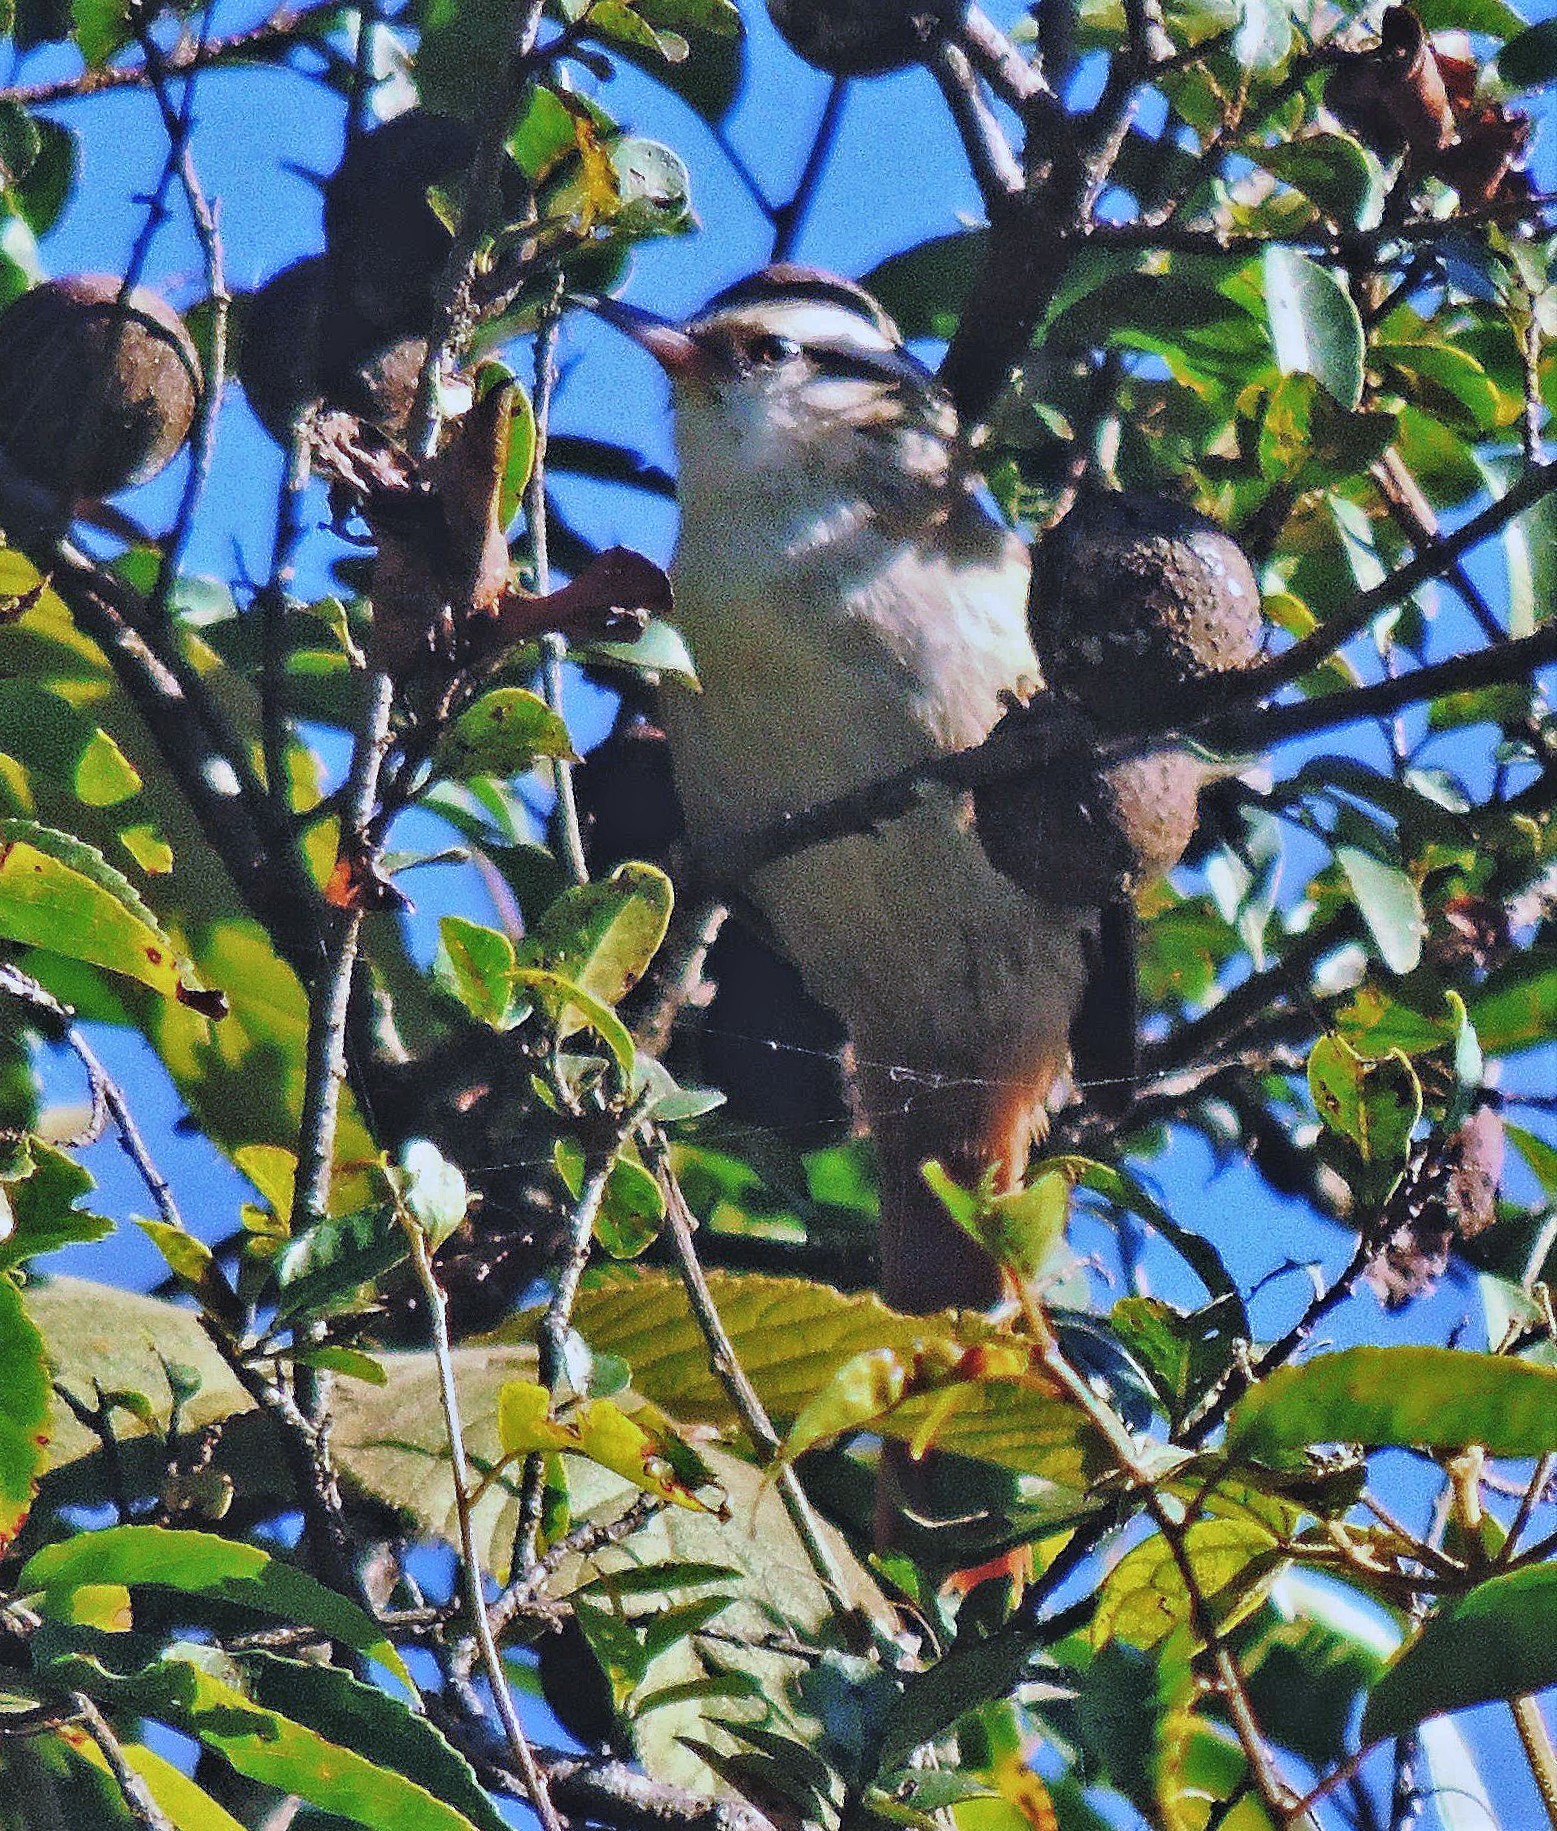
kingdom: Animalia
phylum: Chordata
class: Aves
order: Passeriformes
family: Furnariidae
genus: Cranioleuca
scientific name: Cranioleuca pyrrhophia
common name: Stripe-crowned spinetail
